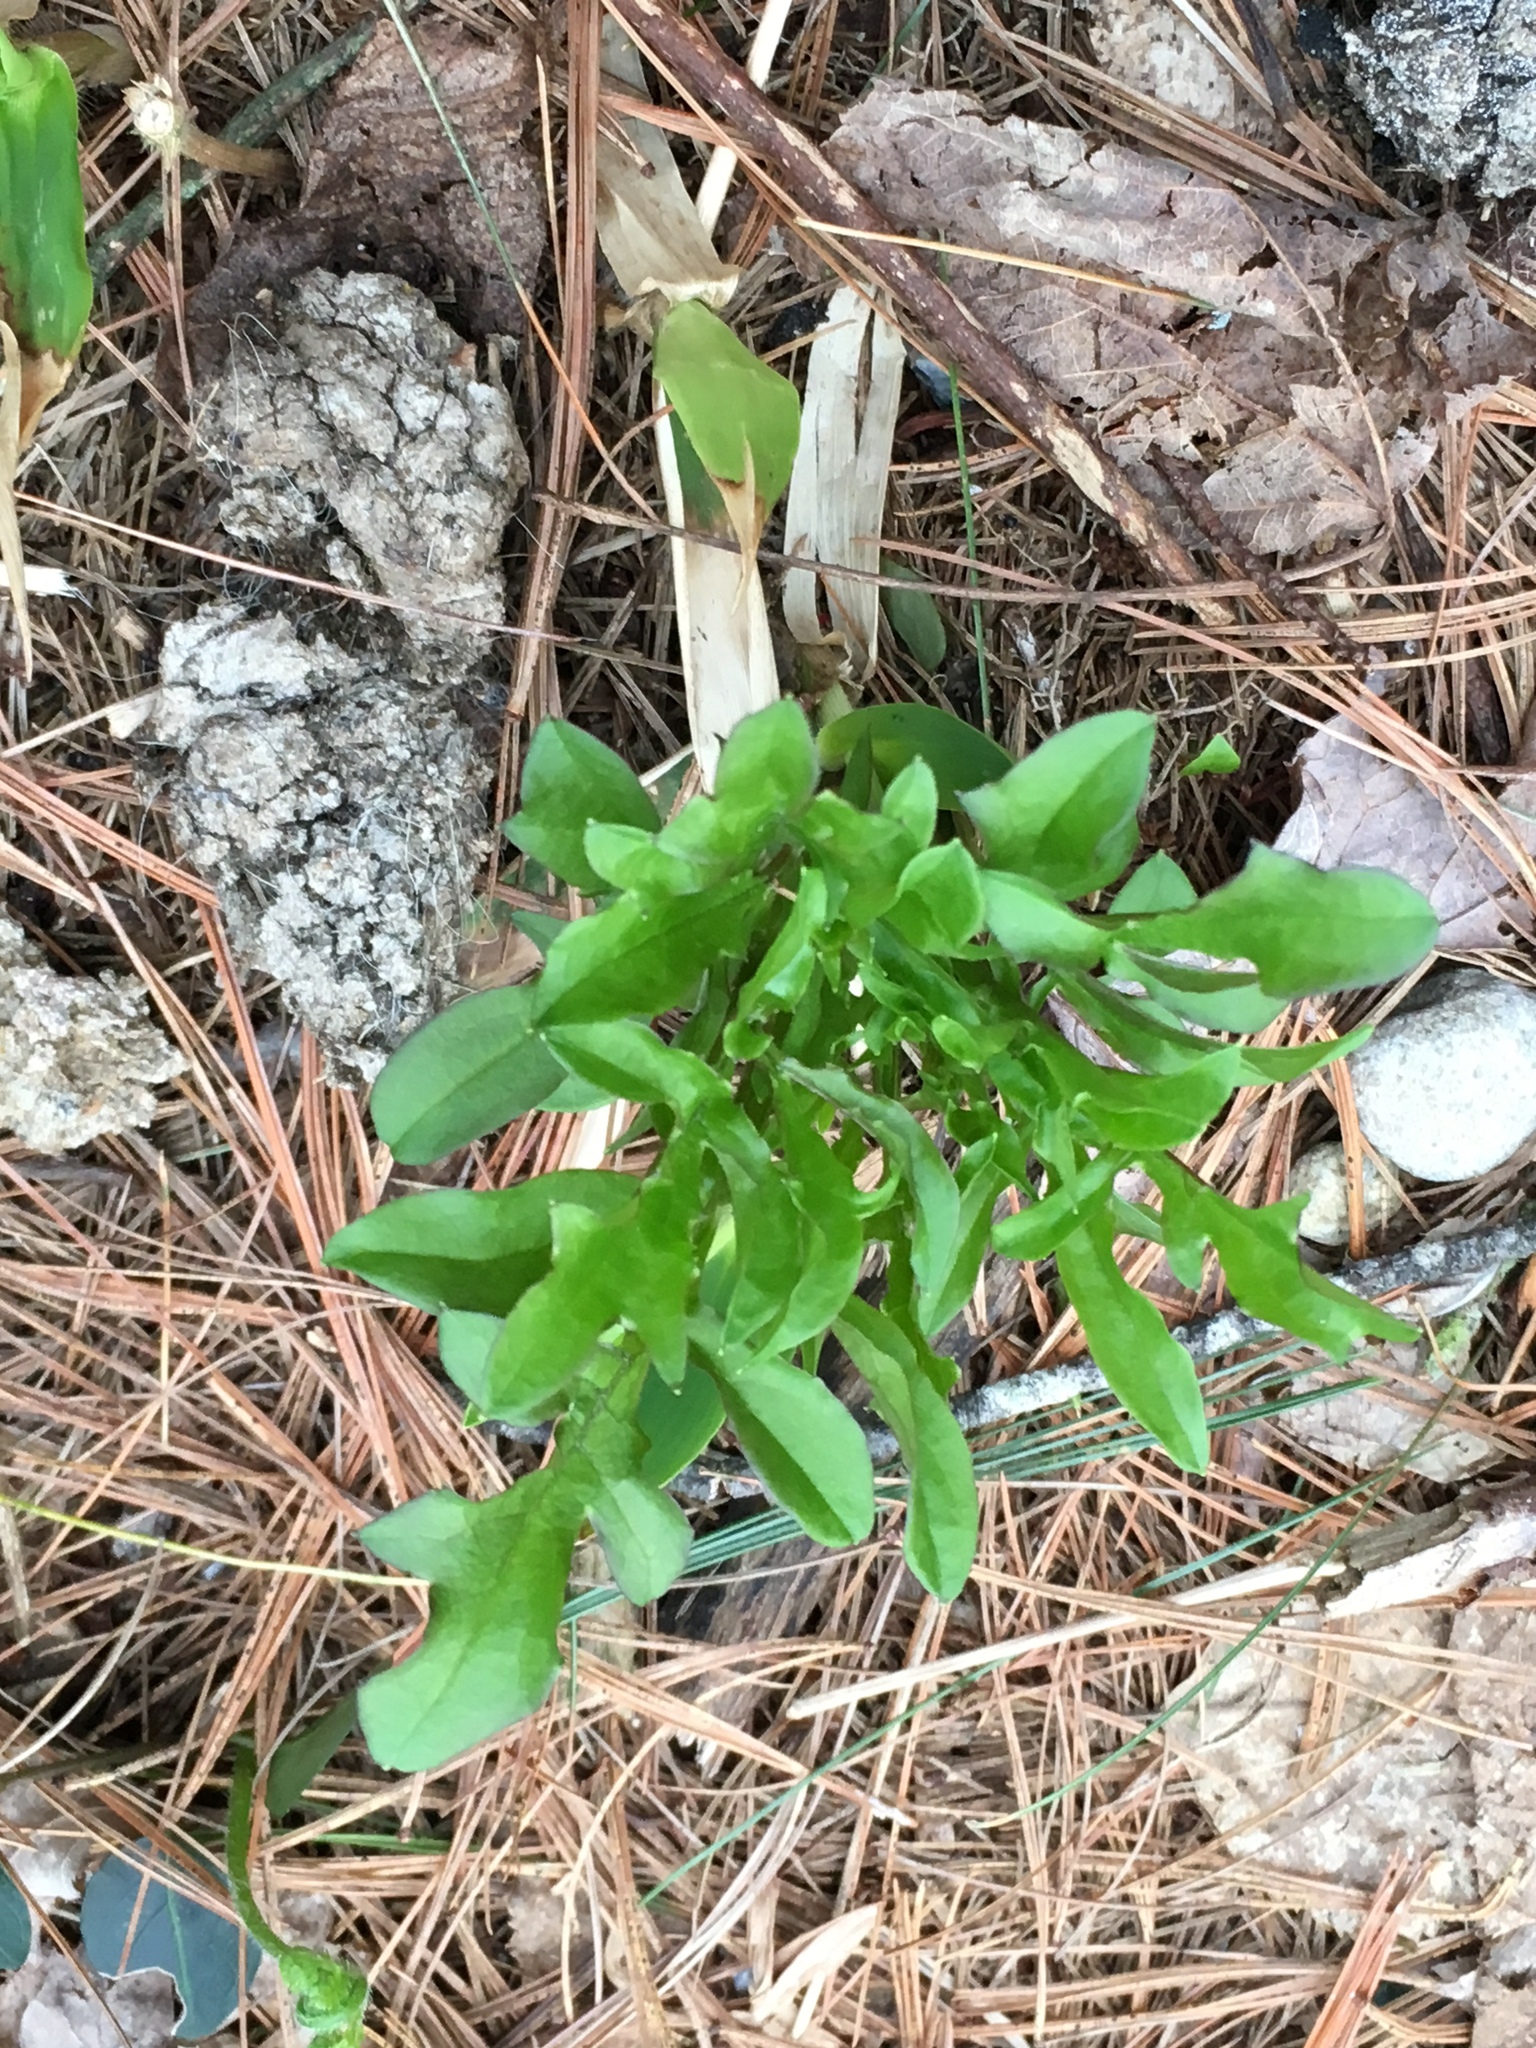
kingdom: Plantae
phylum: Tracheophyta
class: Magnoliopsida
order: Caryophyllales
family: Polygonaceae
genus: Rumex
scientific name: Rumex acetosella
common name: Common sheep sorrel
